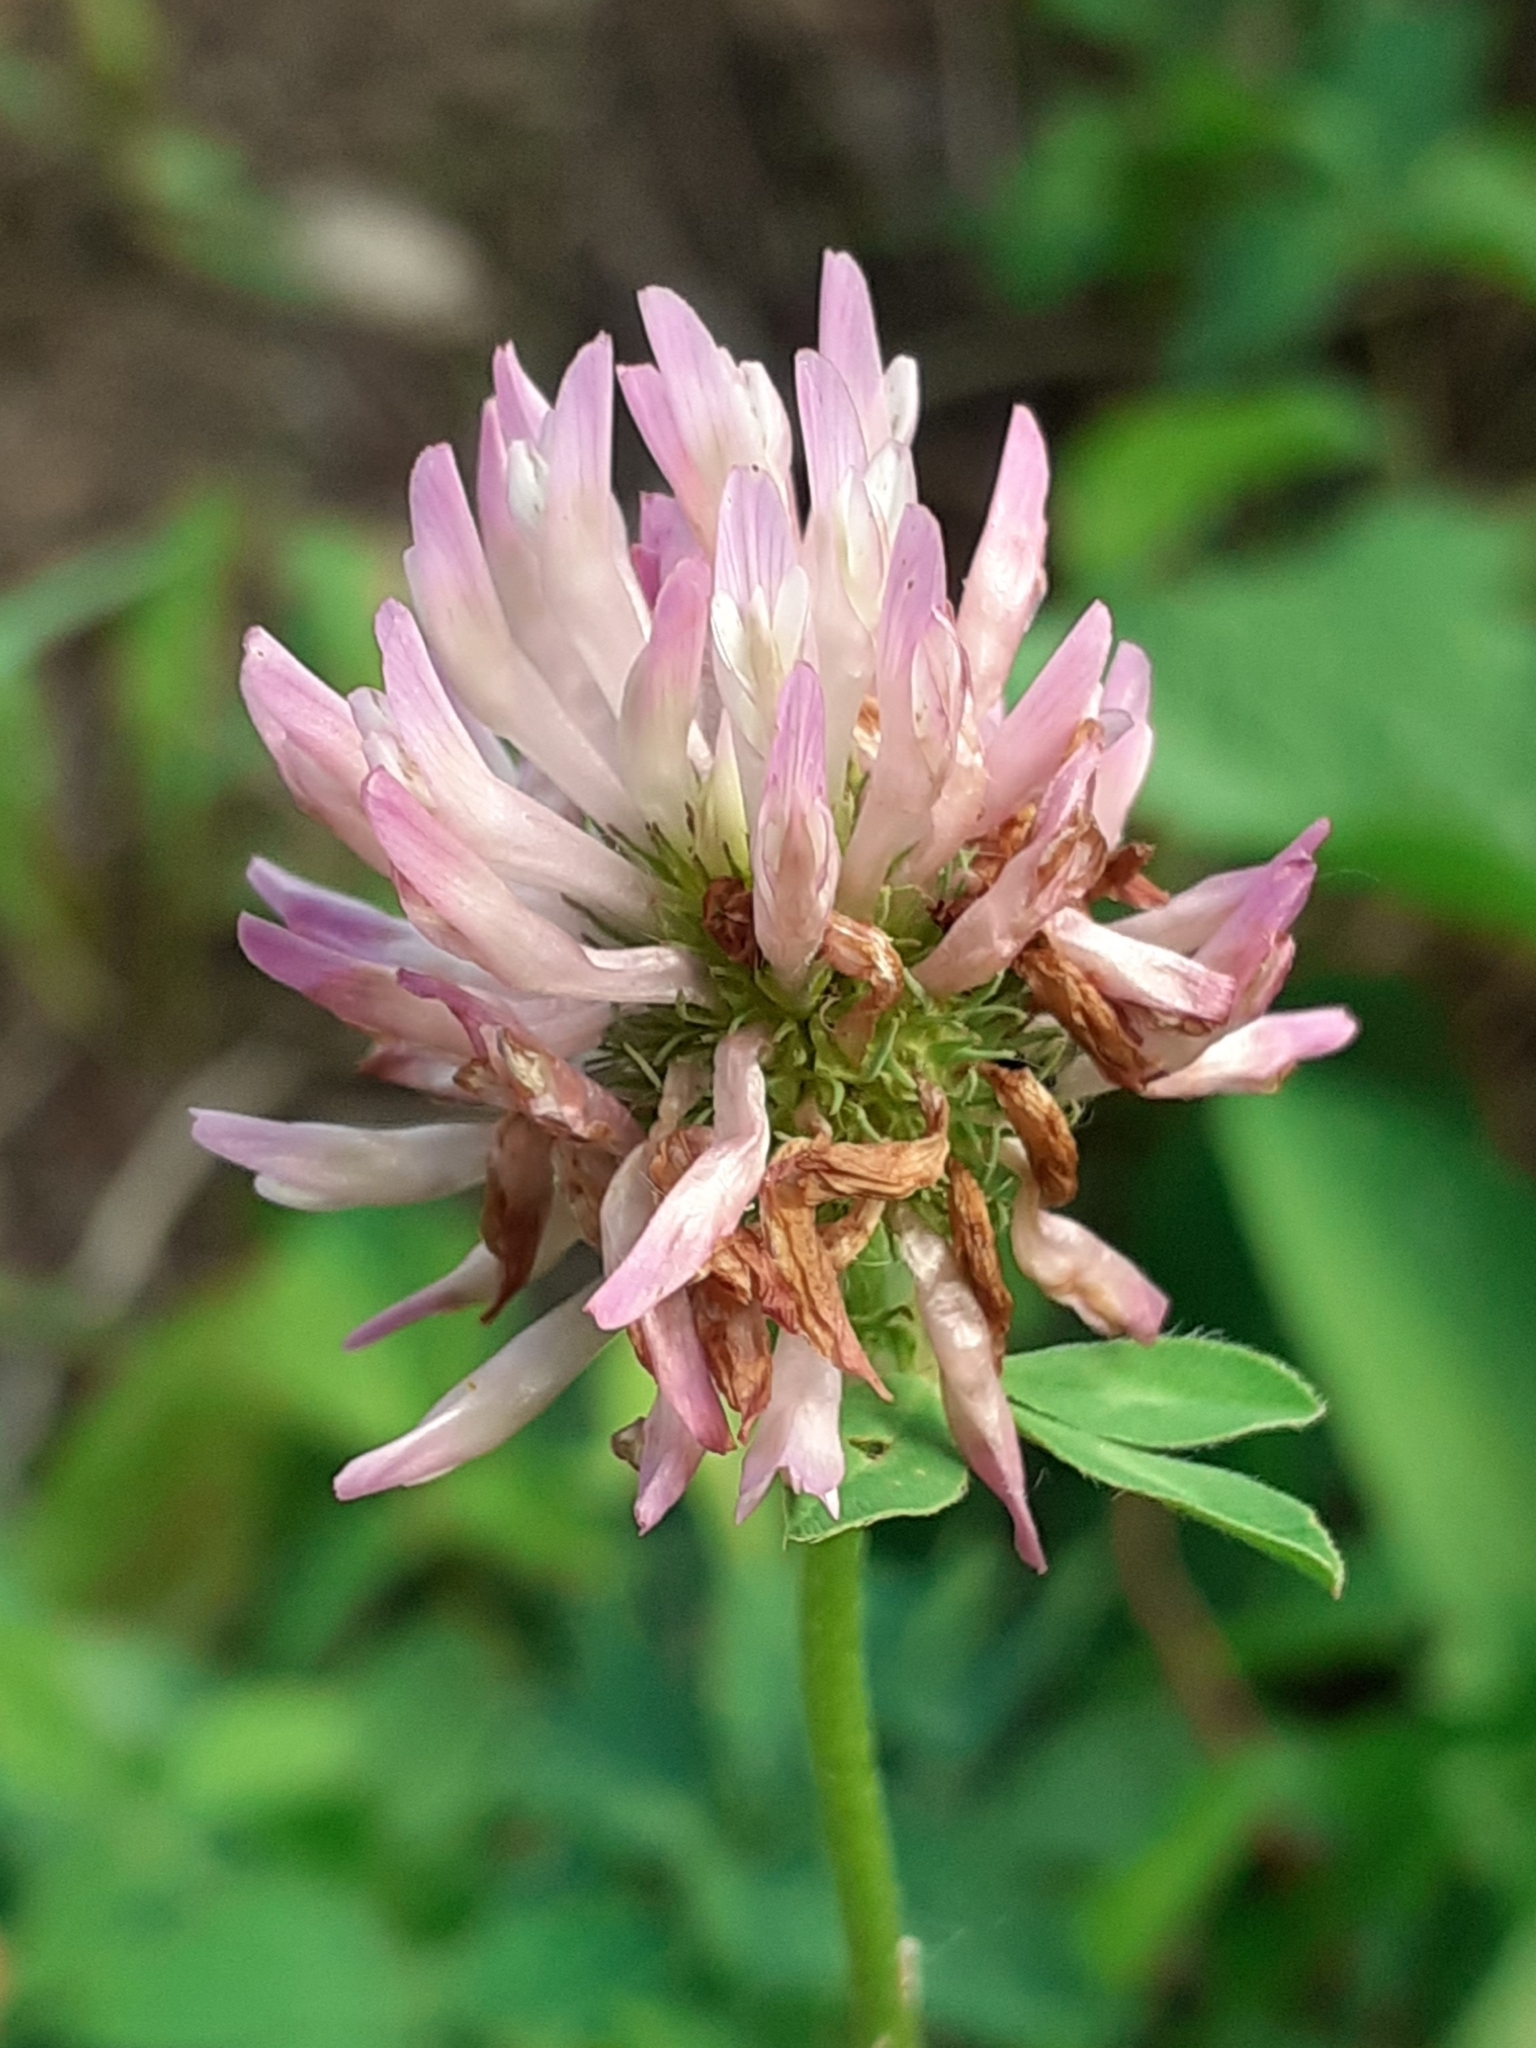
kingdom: Plantae
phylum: Tracheophyta
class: Magnoliopsida
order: Fabales
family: Fabaceae
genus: Trifolium
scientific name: Trifolium pratense
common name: Red clover
